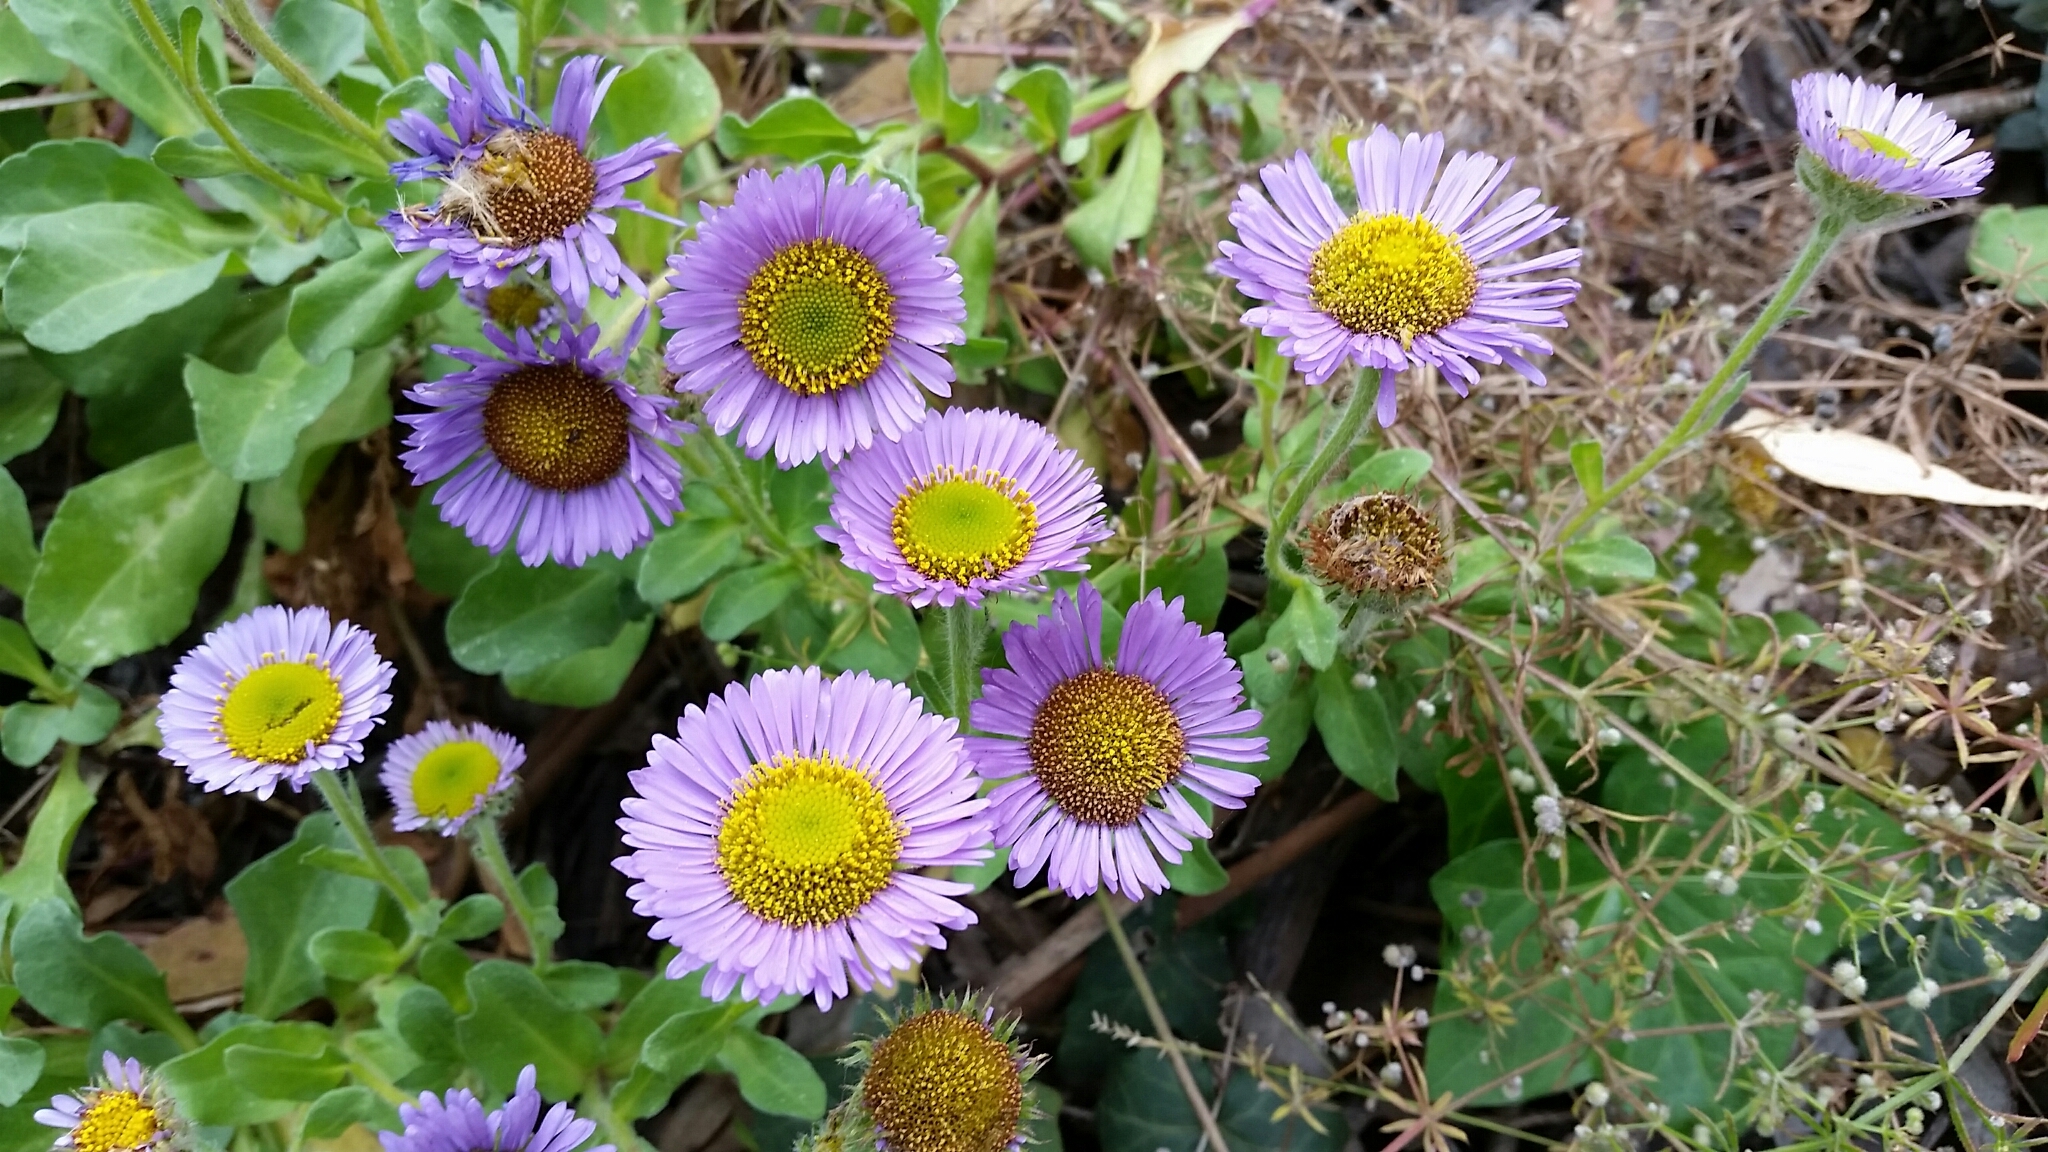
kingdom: Plantae
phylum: Tracheophyta
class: Magnoliopsida
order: Asterales
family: Asteraceae
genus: Erigeron
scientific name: Erigeron glaucus
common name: Seaside daisy
